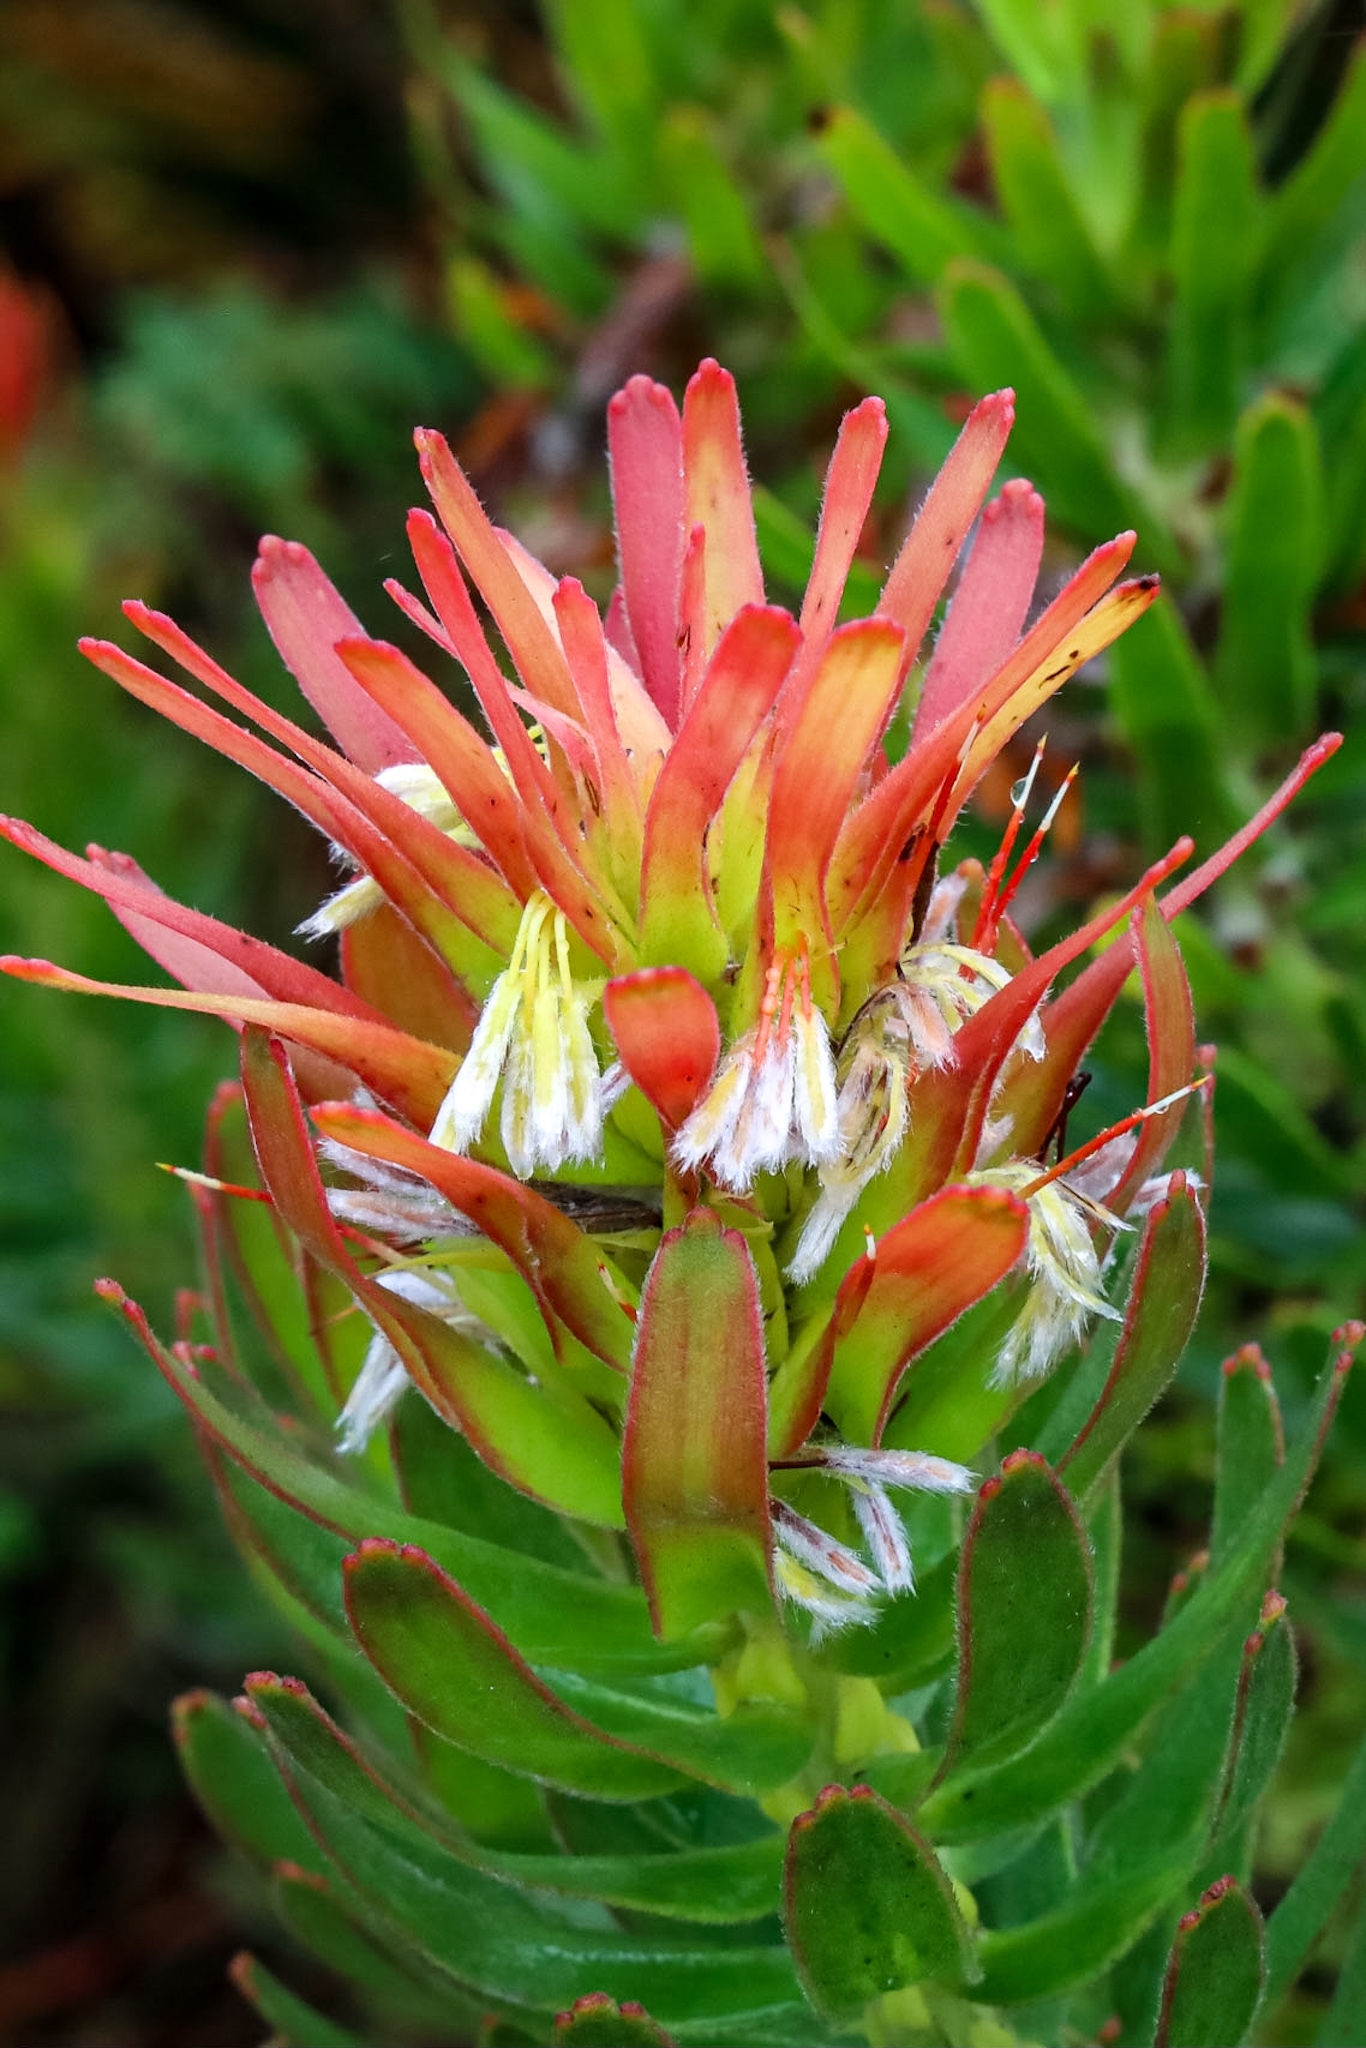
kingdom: Plantae
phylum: Tracheophyta
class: Magnoliopsida
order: Proteales
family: Proteaceae
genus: Mimetes
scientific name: Mimetes cucullatus
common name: Common pagoda
